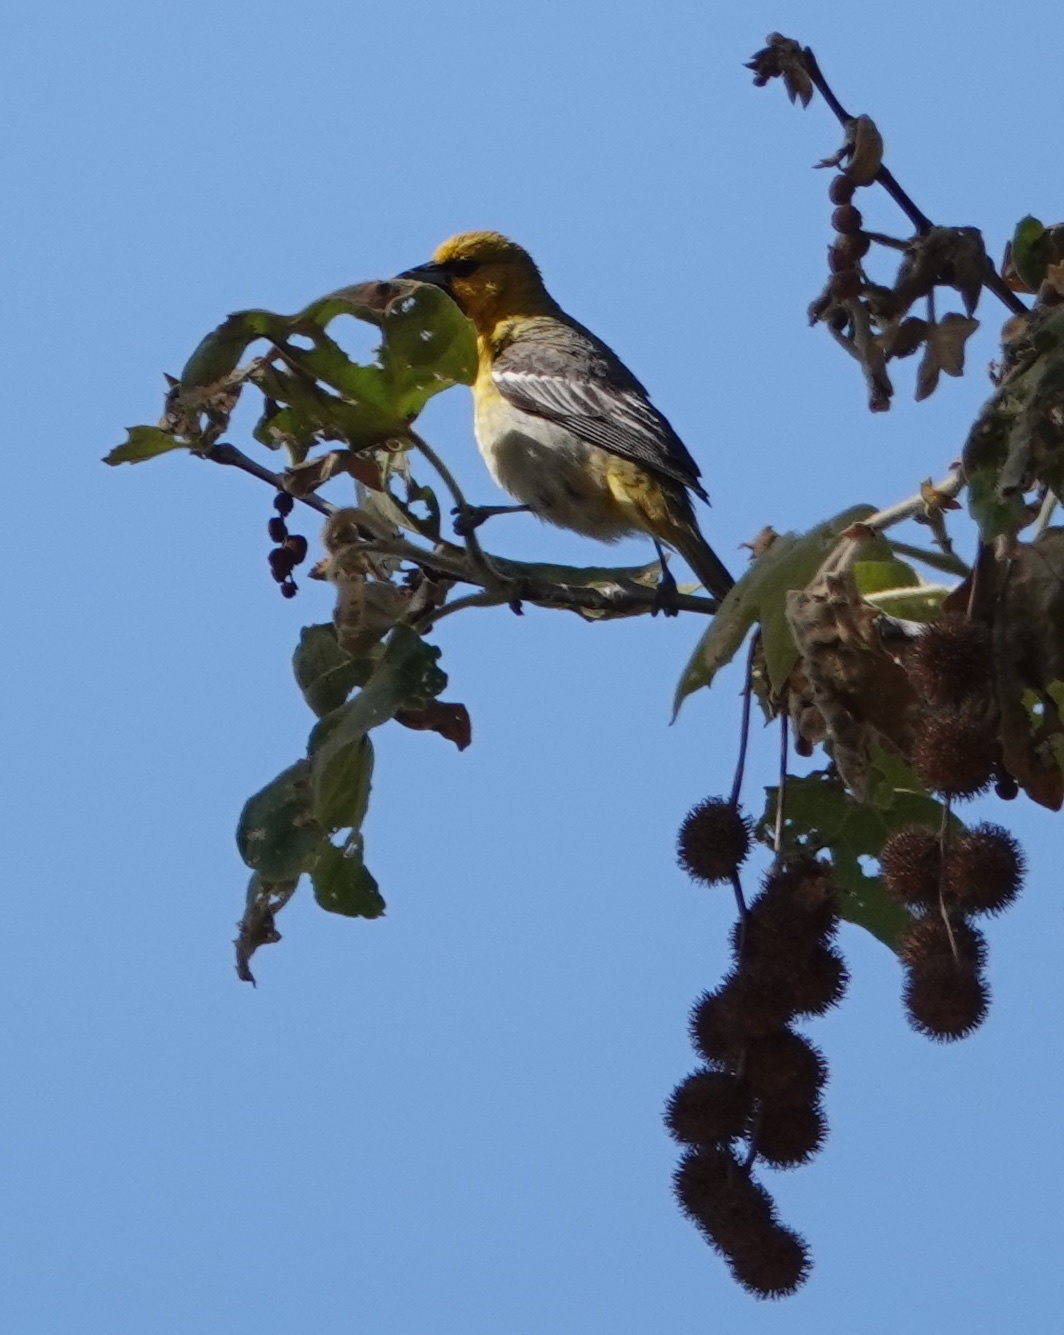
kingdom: Animalia
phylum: Chordata
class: Aves
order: Passeriformes
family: Icteridae
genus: Icterus
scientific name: Icterus bullockii
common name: Bullock's oriole
